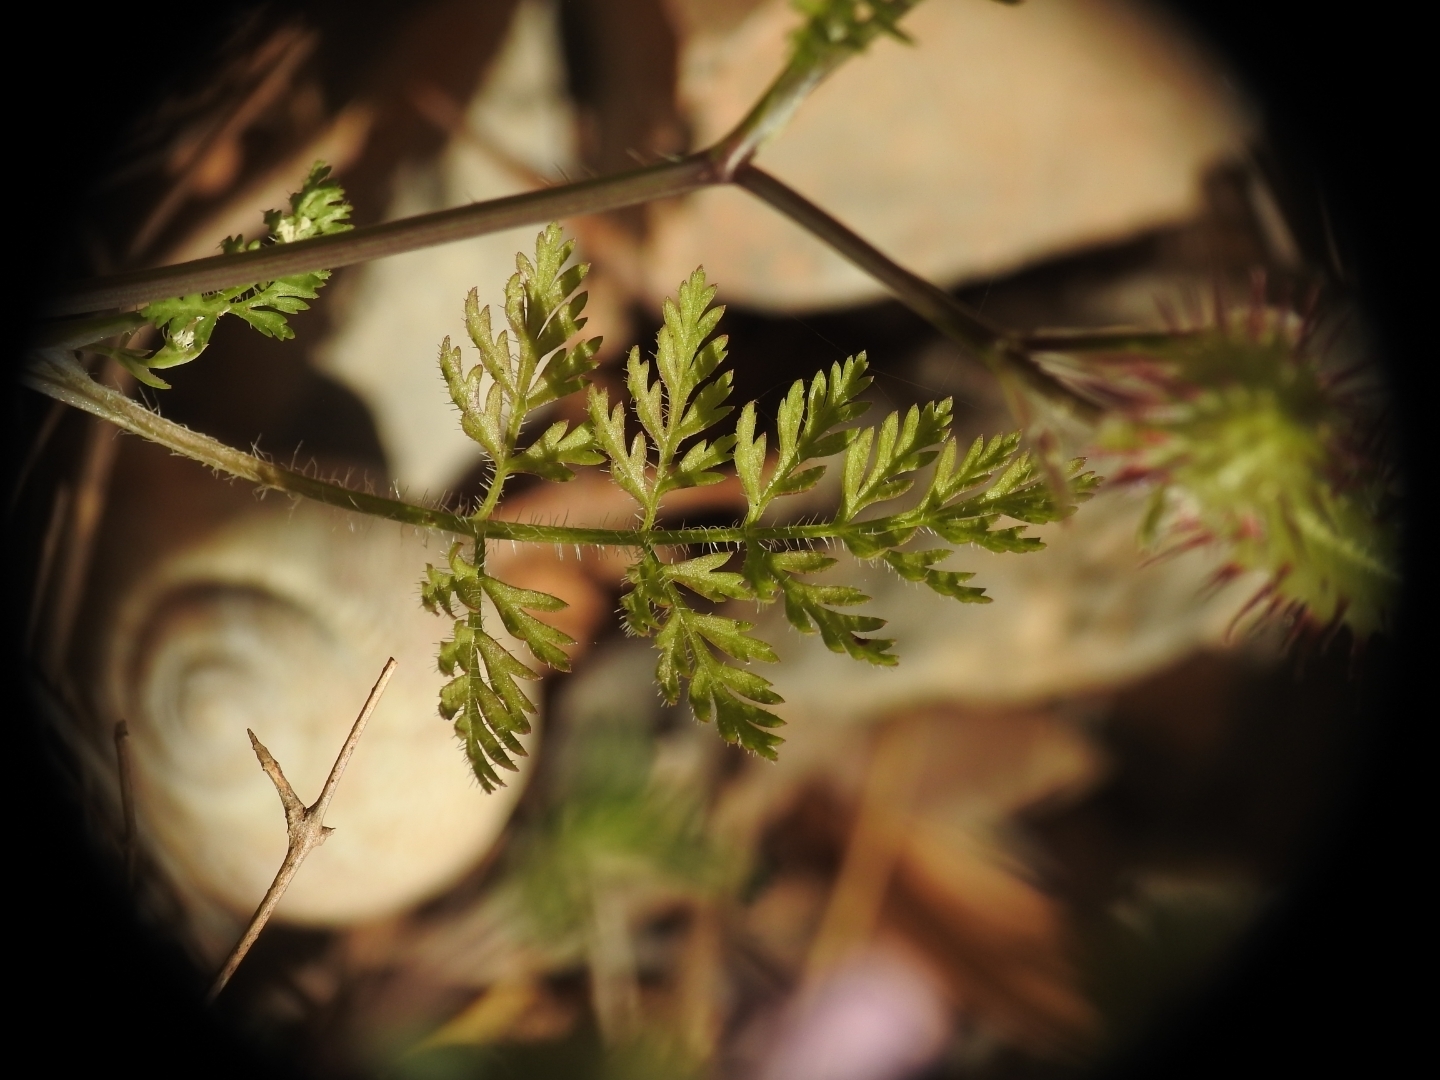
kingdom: Plantae
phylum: Tracheophyta
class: Magnoliopsida
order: Apiales
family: Apiaceae
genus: Orlaya
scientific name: Orlaya daucoides
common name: Flat-fruit orlaya
